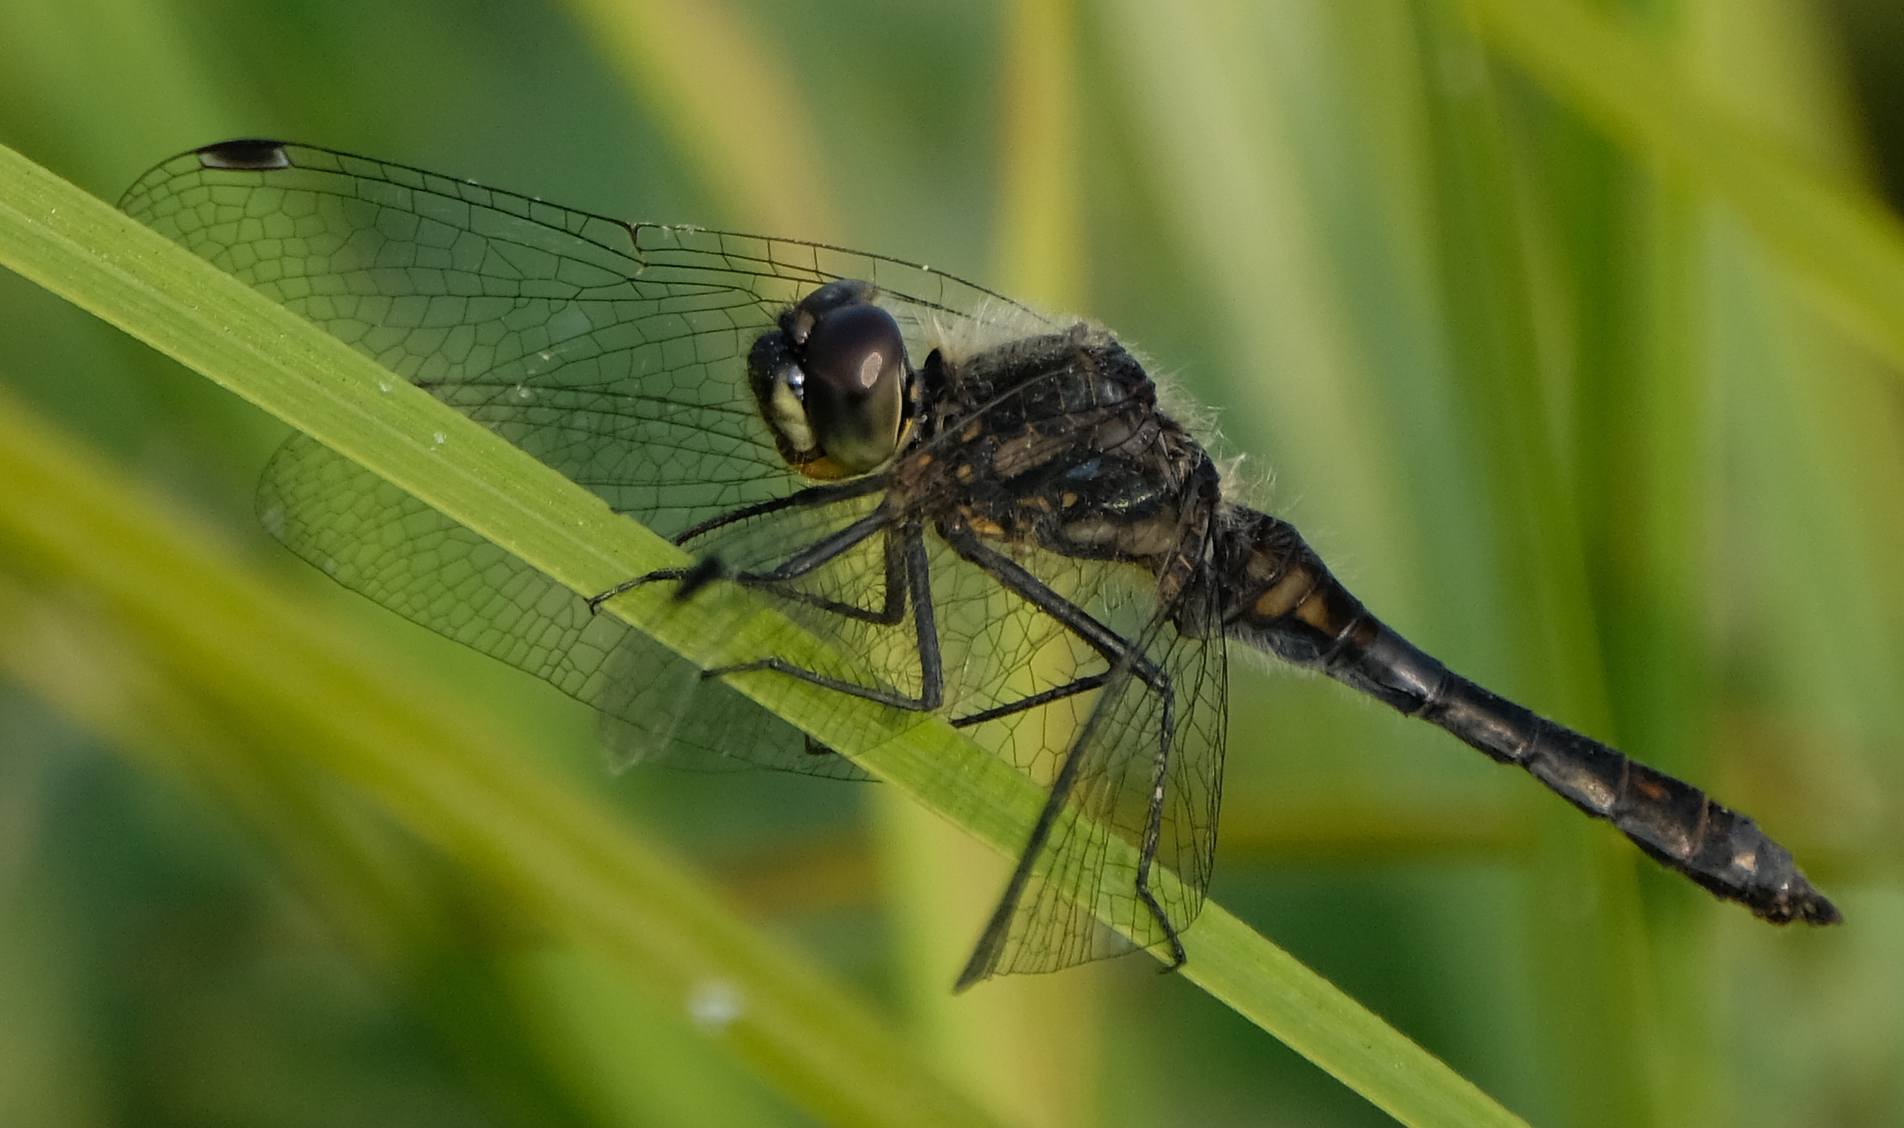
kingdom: Animalia
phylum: Arthropoda
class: Insecta
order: Odonata
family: Libellulidae
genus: Sympetrum
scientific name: Sympetrum danae
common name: Black darter
